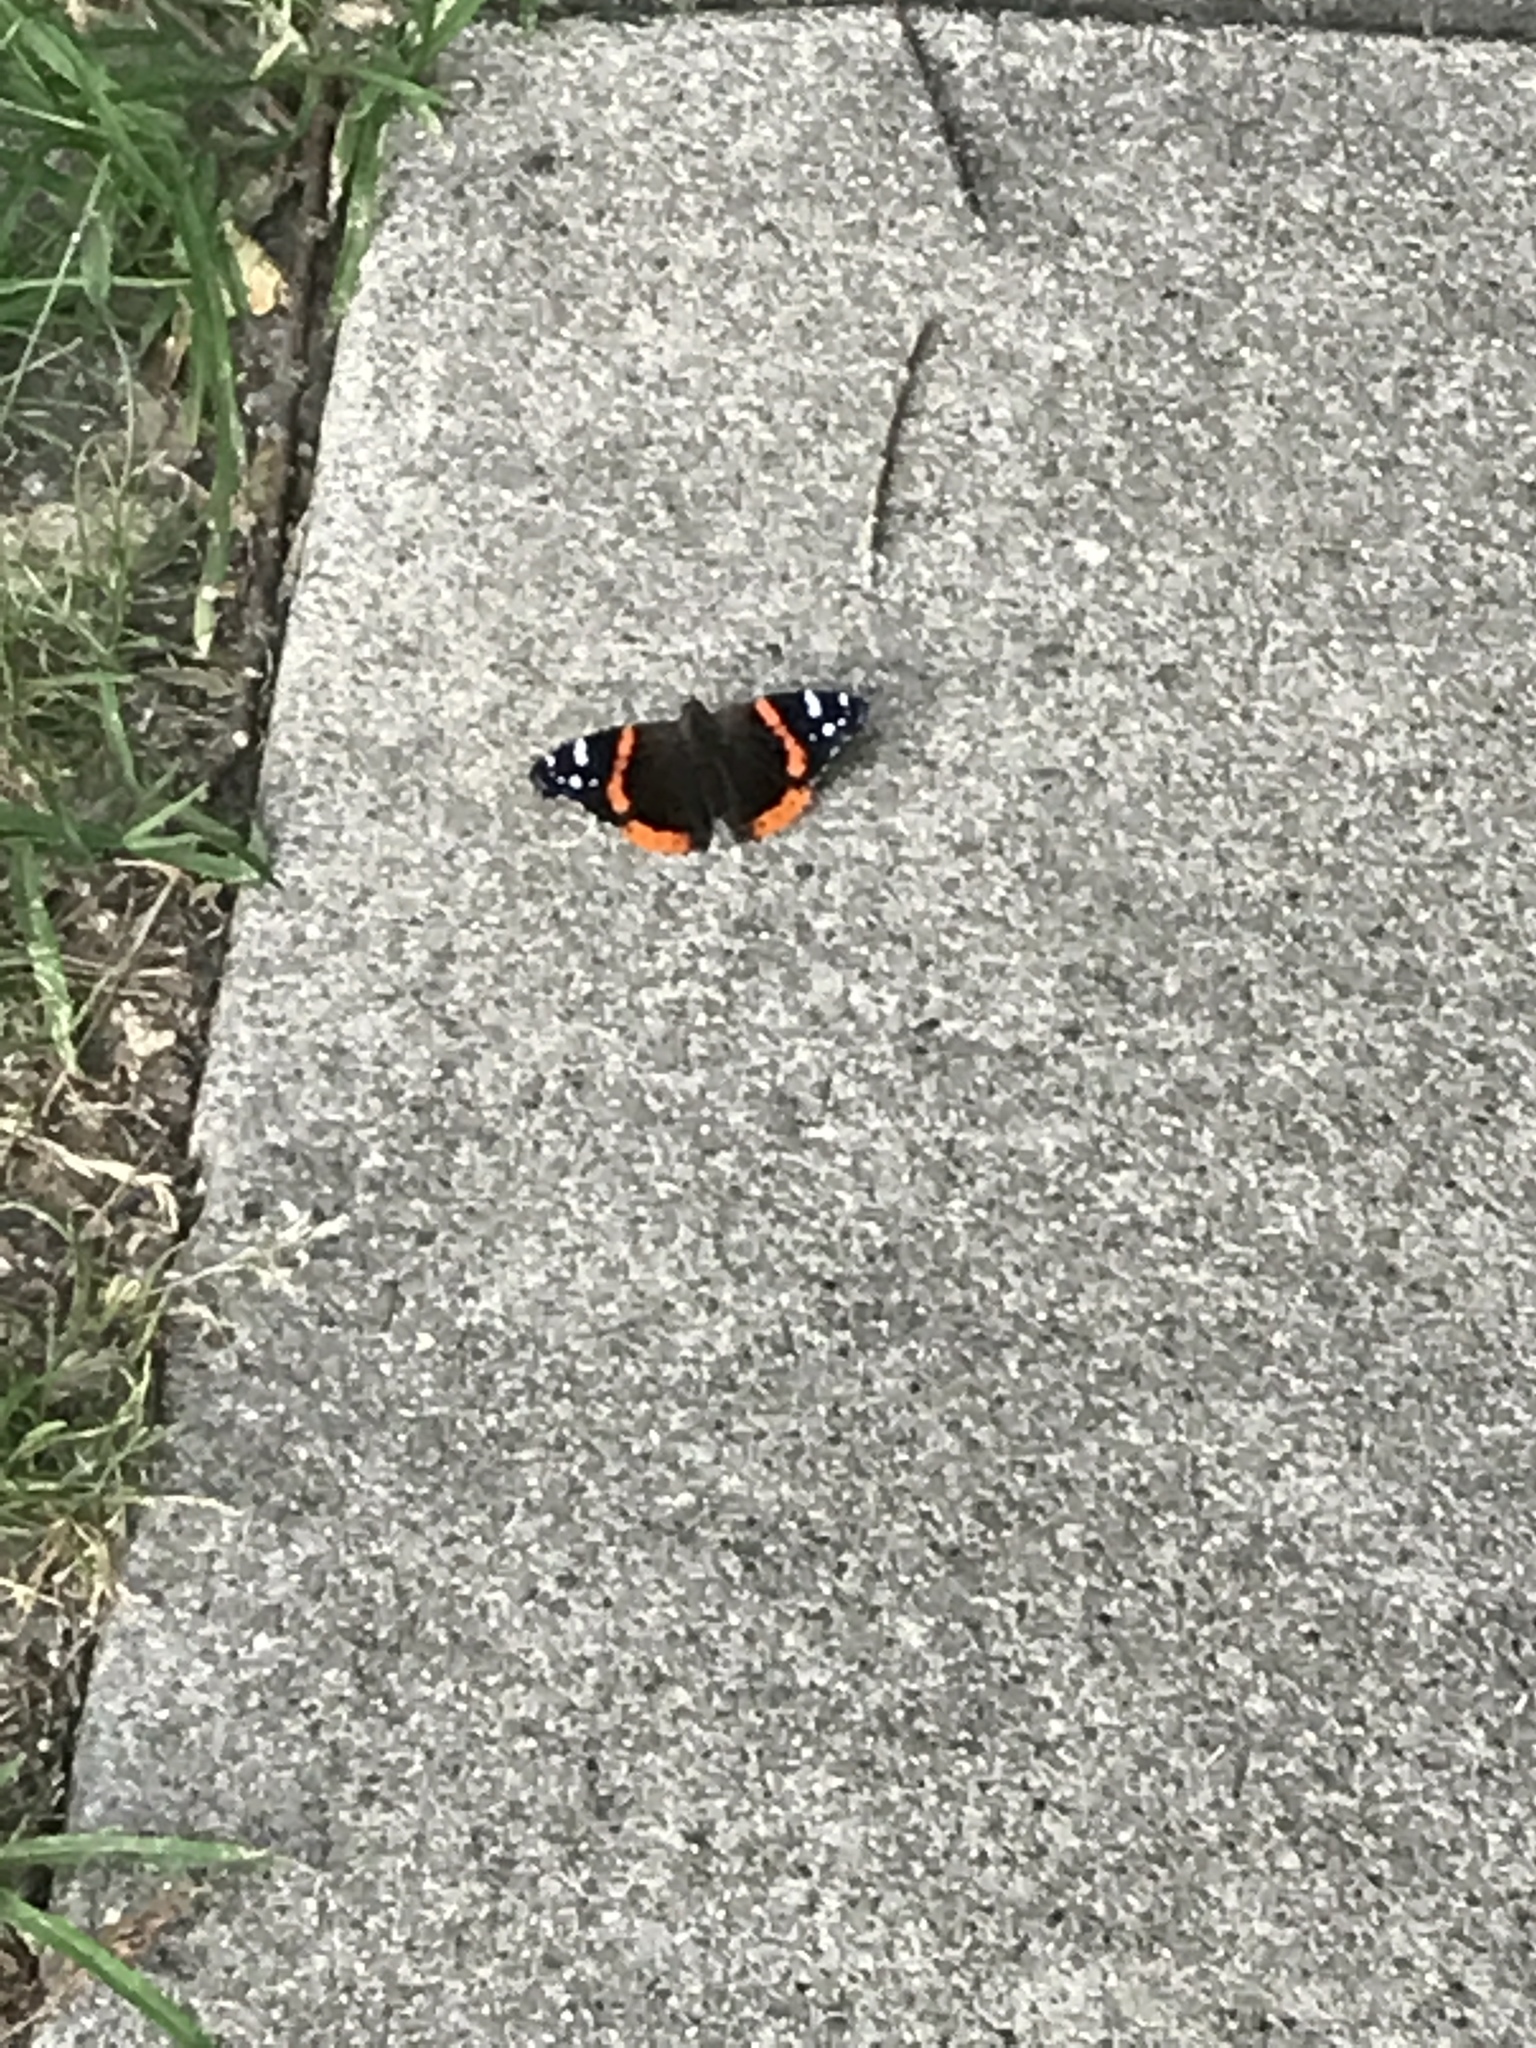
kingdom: Animalia
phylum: Arthropoda
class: Insecta
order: Lepidoptera
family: Nymphalidae
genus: Vanessa
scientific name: Vanessa atalanta
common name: Red admiral
